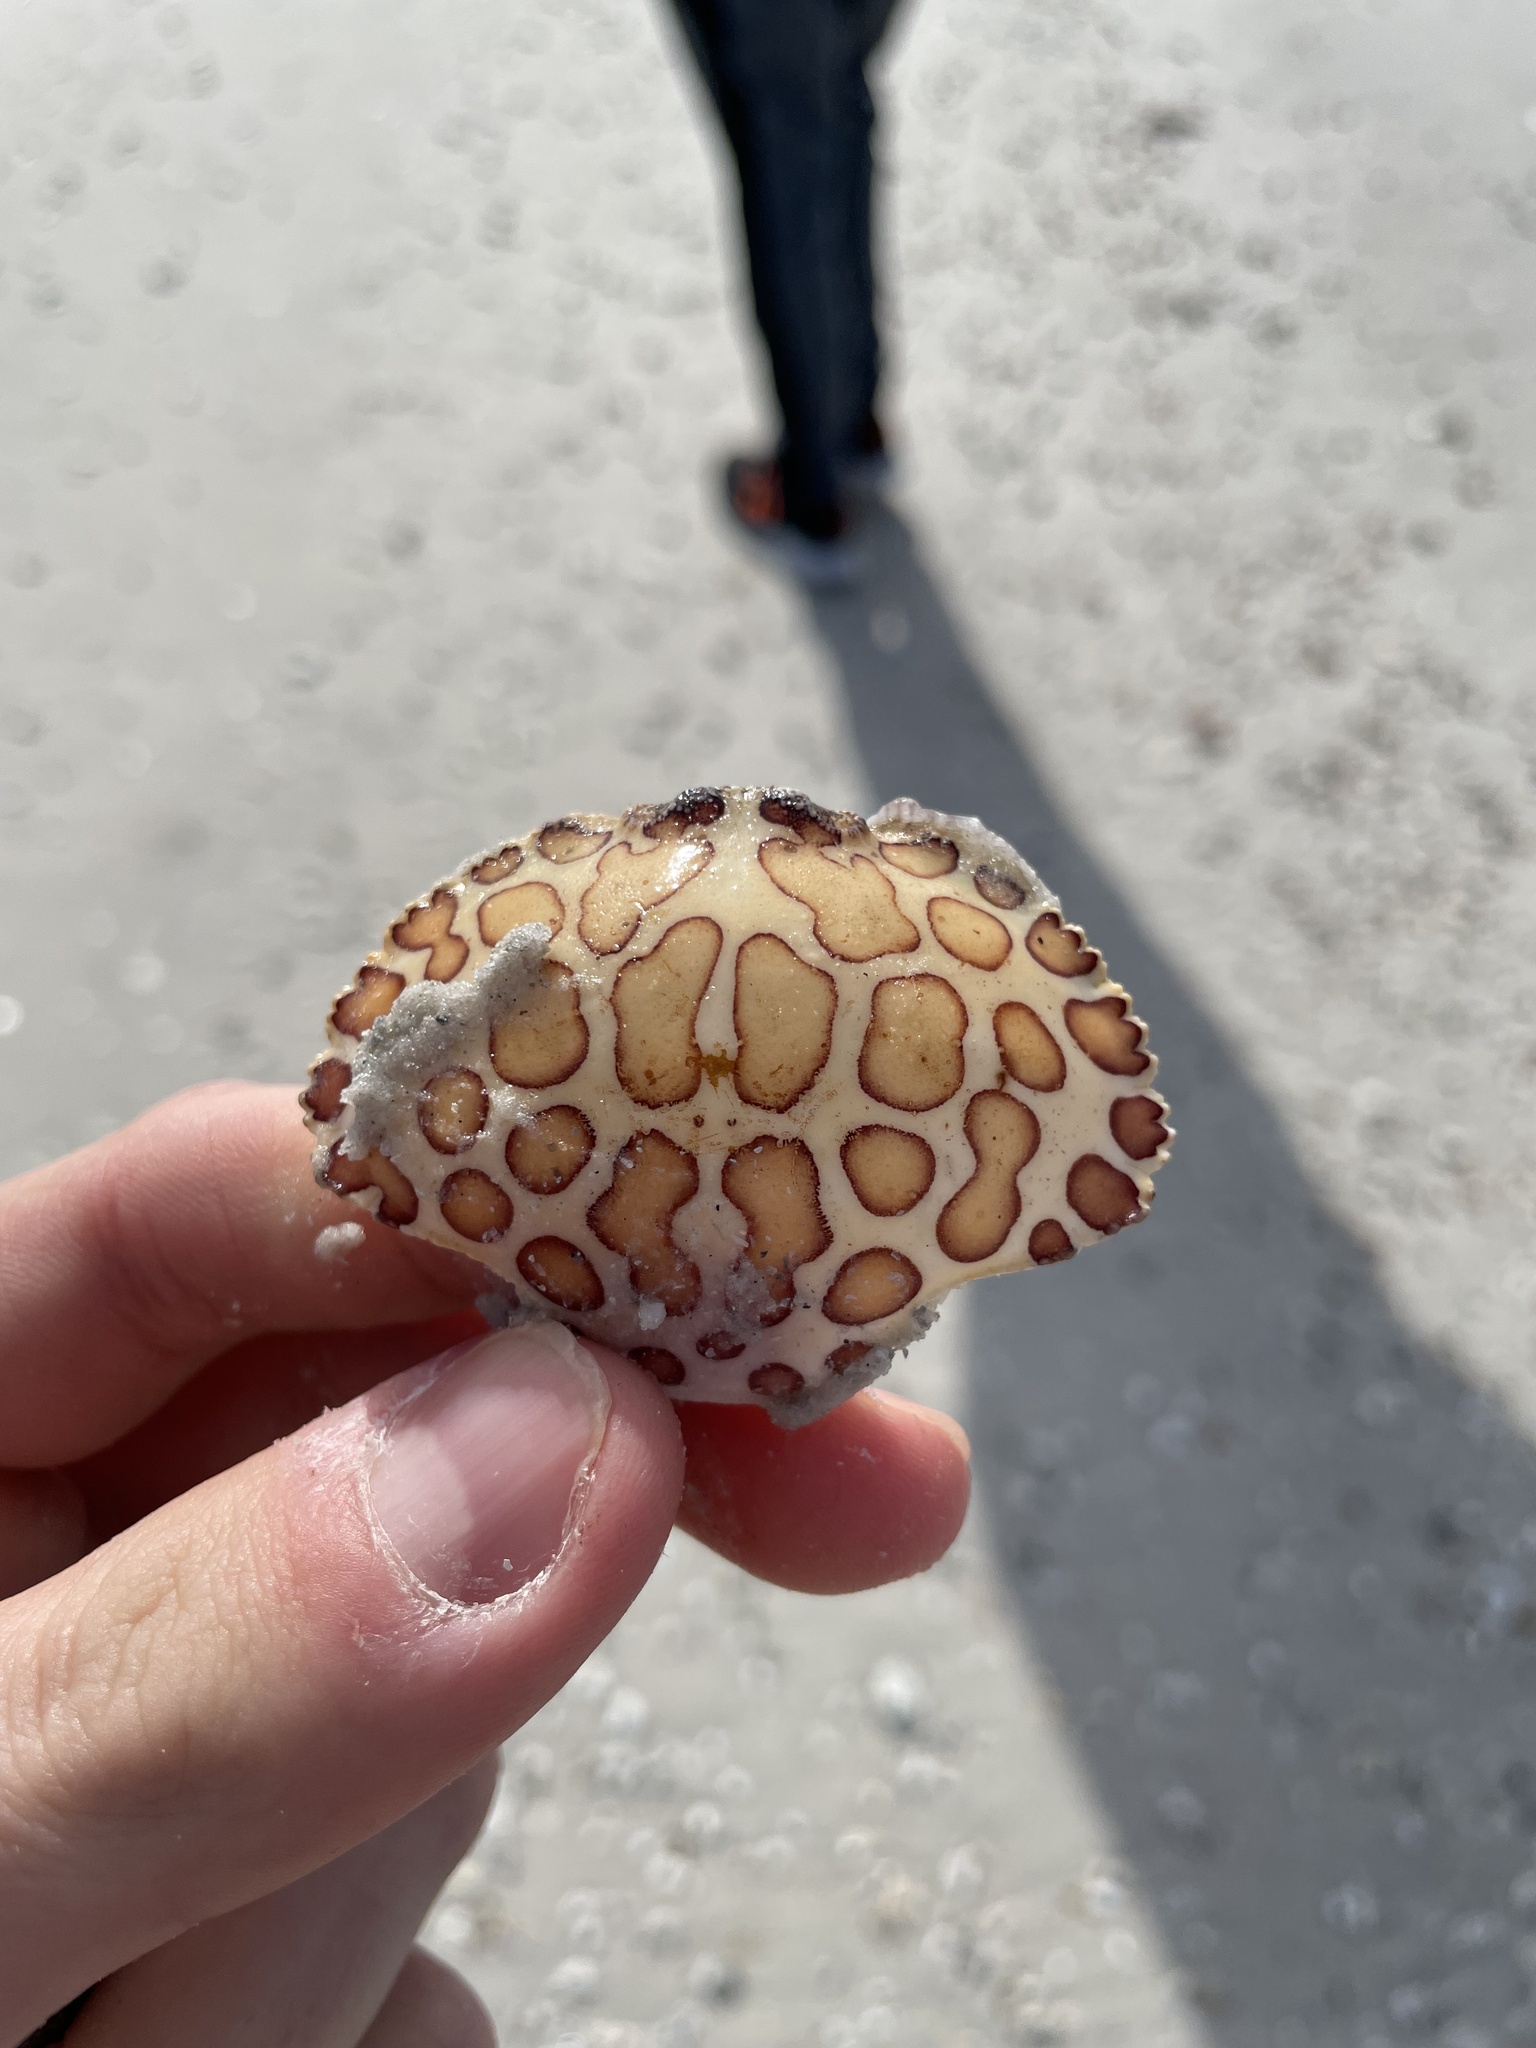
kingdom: Animalia
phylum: Arthropoda
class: Malacostraca
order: Decapoda
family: Aethridae
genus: Hepatus
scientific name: Hepatus epheliticus
